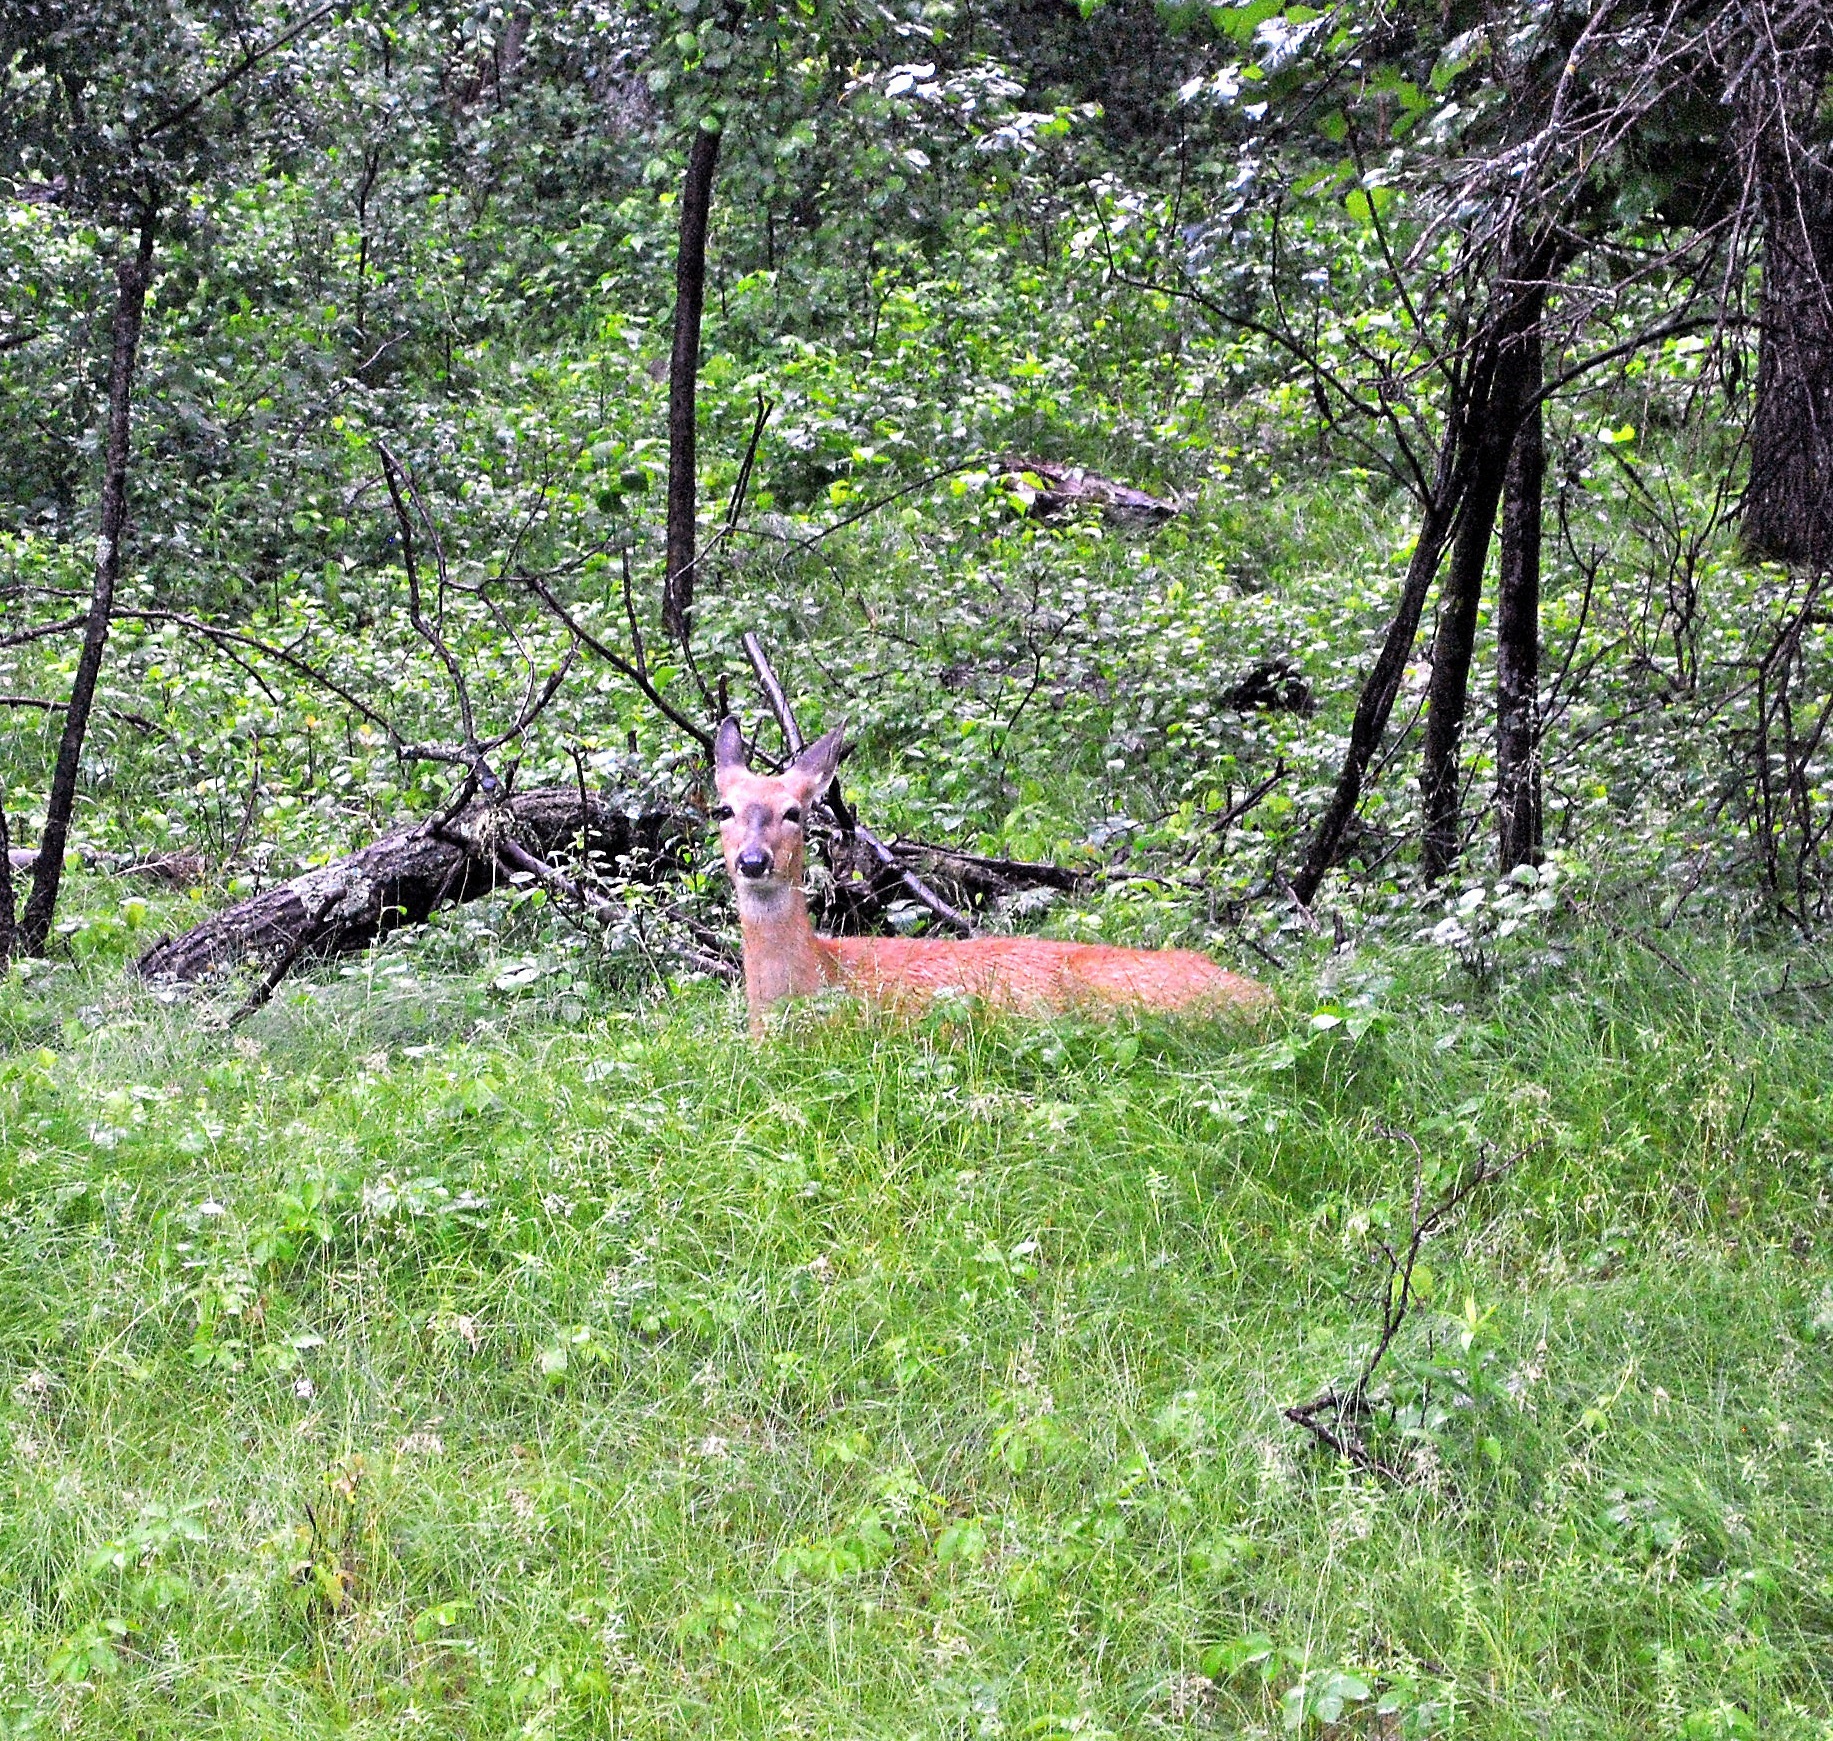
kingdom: Animalia
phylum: Chordata
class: Mammalia
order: Artiodactyla
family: Cervidae
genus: Odocoileus
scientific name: Odocoileus virginianus
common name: White-tailed deer
